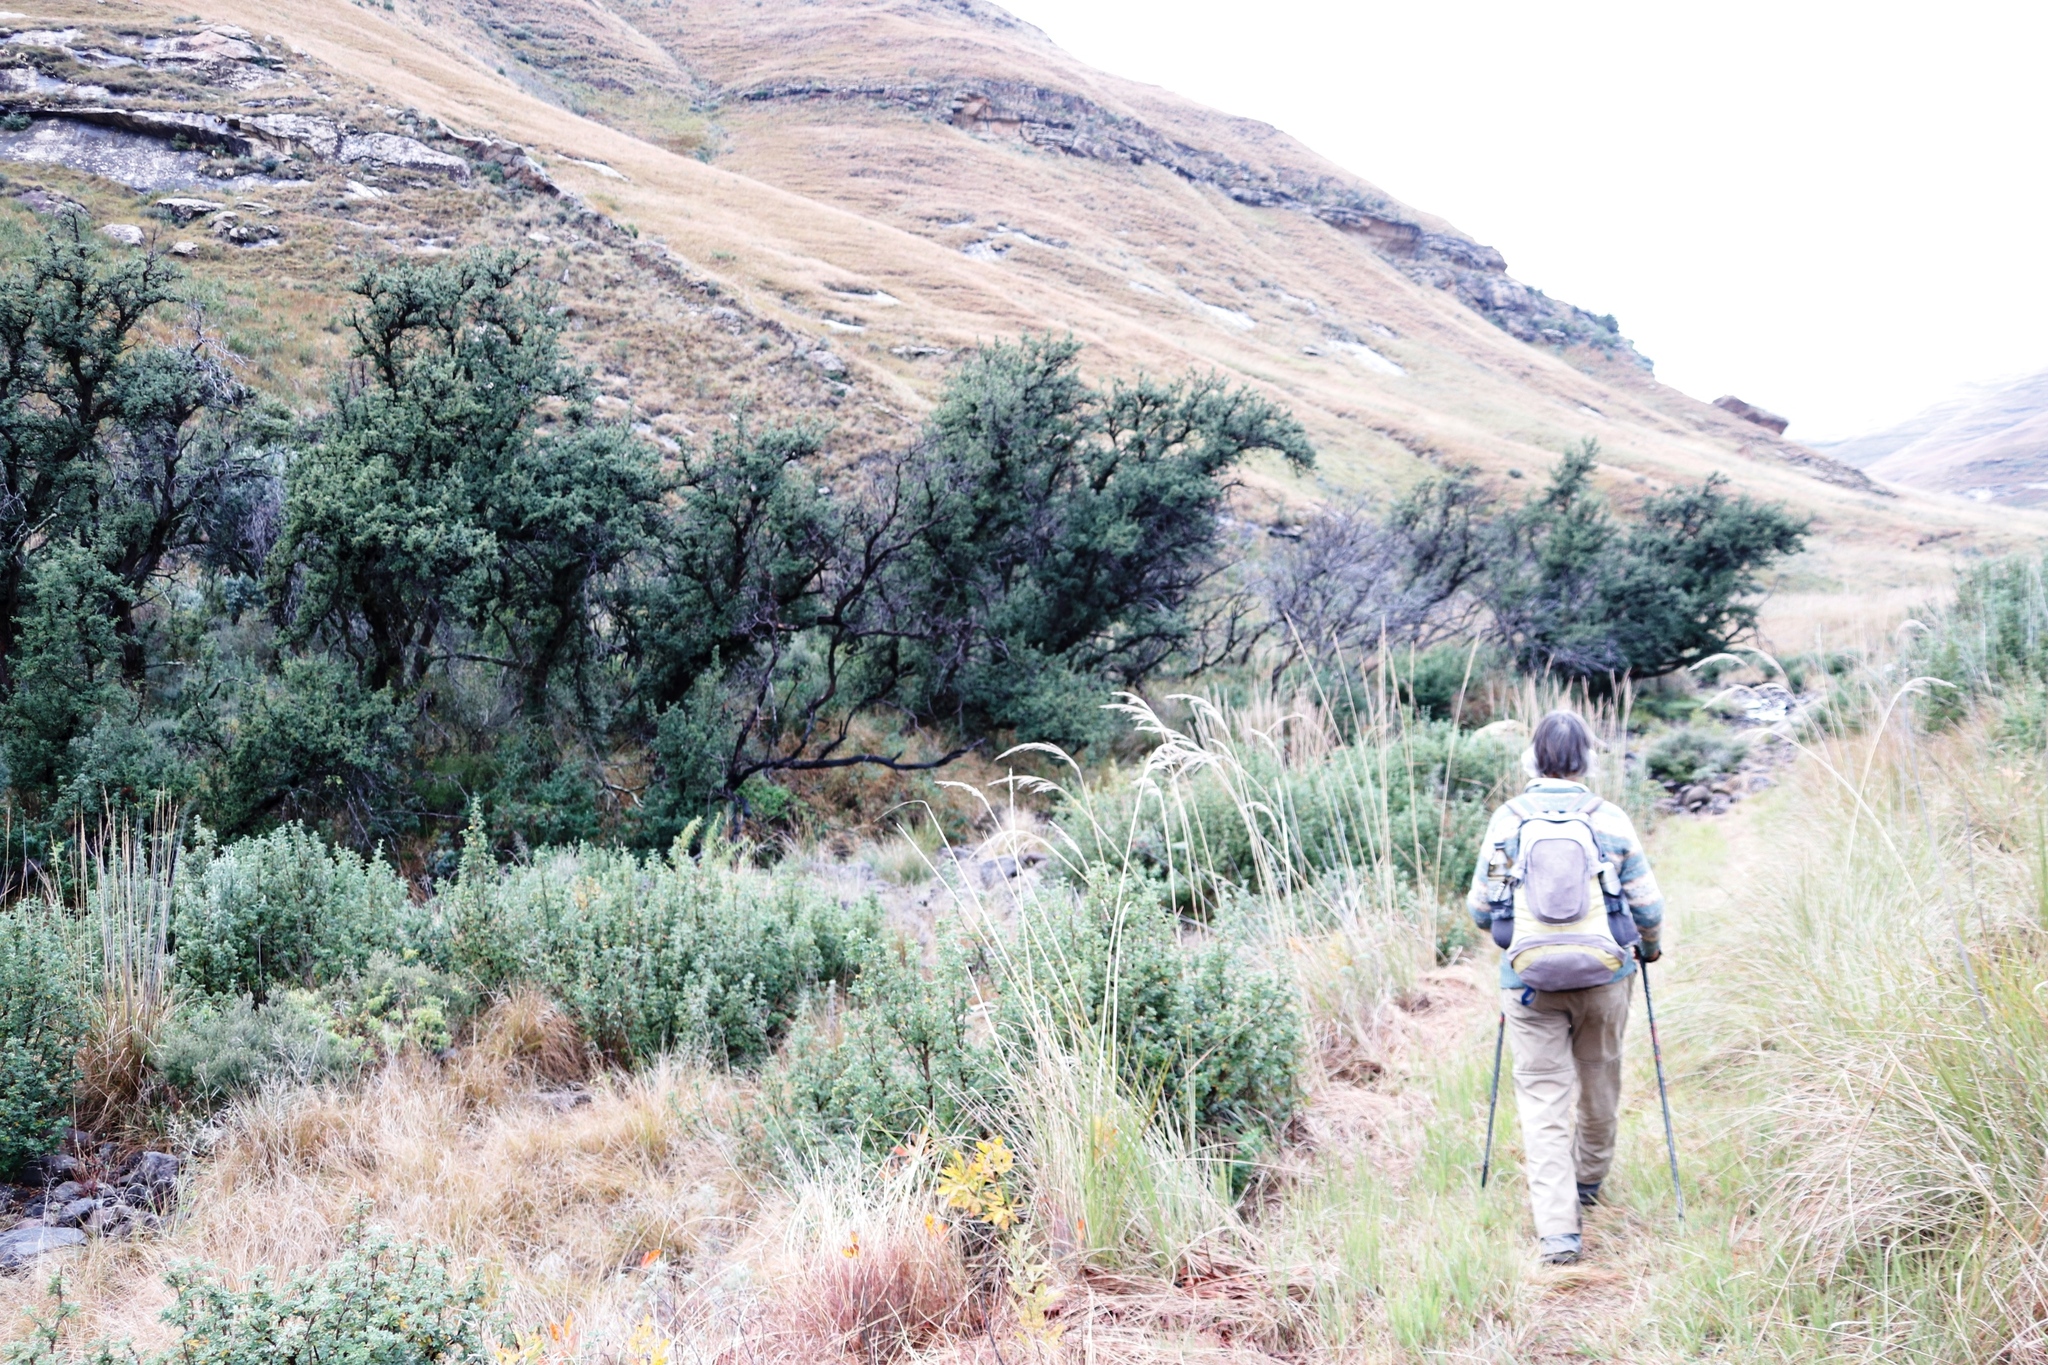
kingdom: Plantae
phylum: Tracheophyta
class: Magnoliopsida
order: Rosales
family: Rosaceae
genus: Leucosidea
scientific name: Leucosidea sericea
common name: Oldwood
